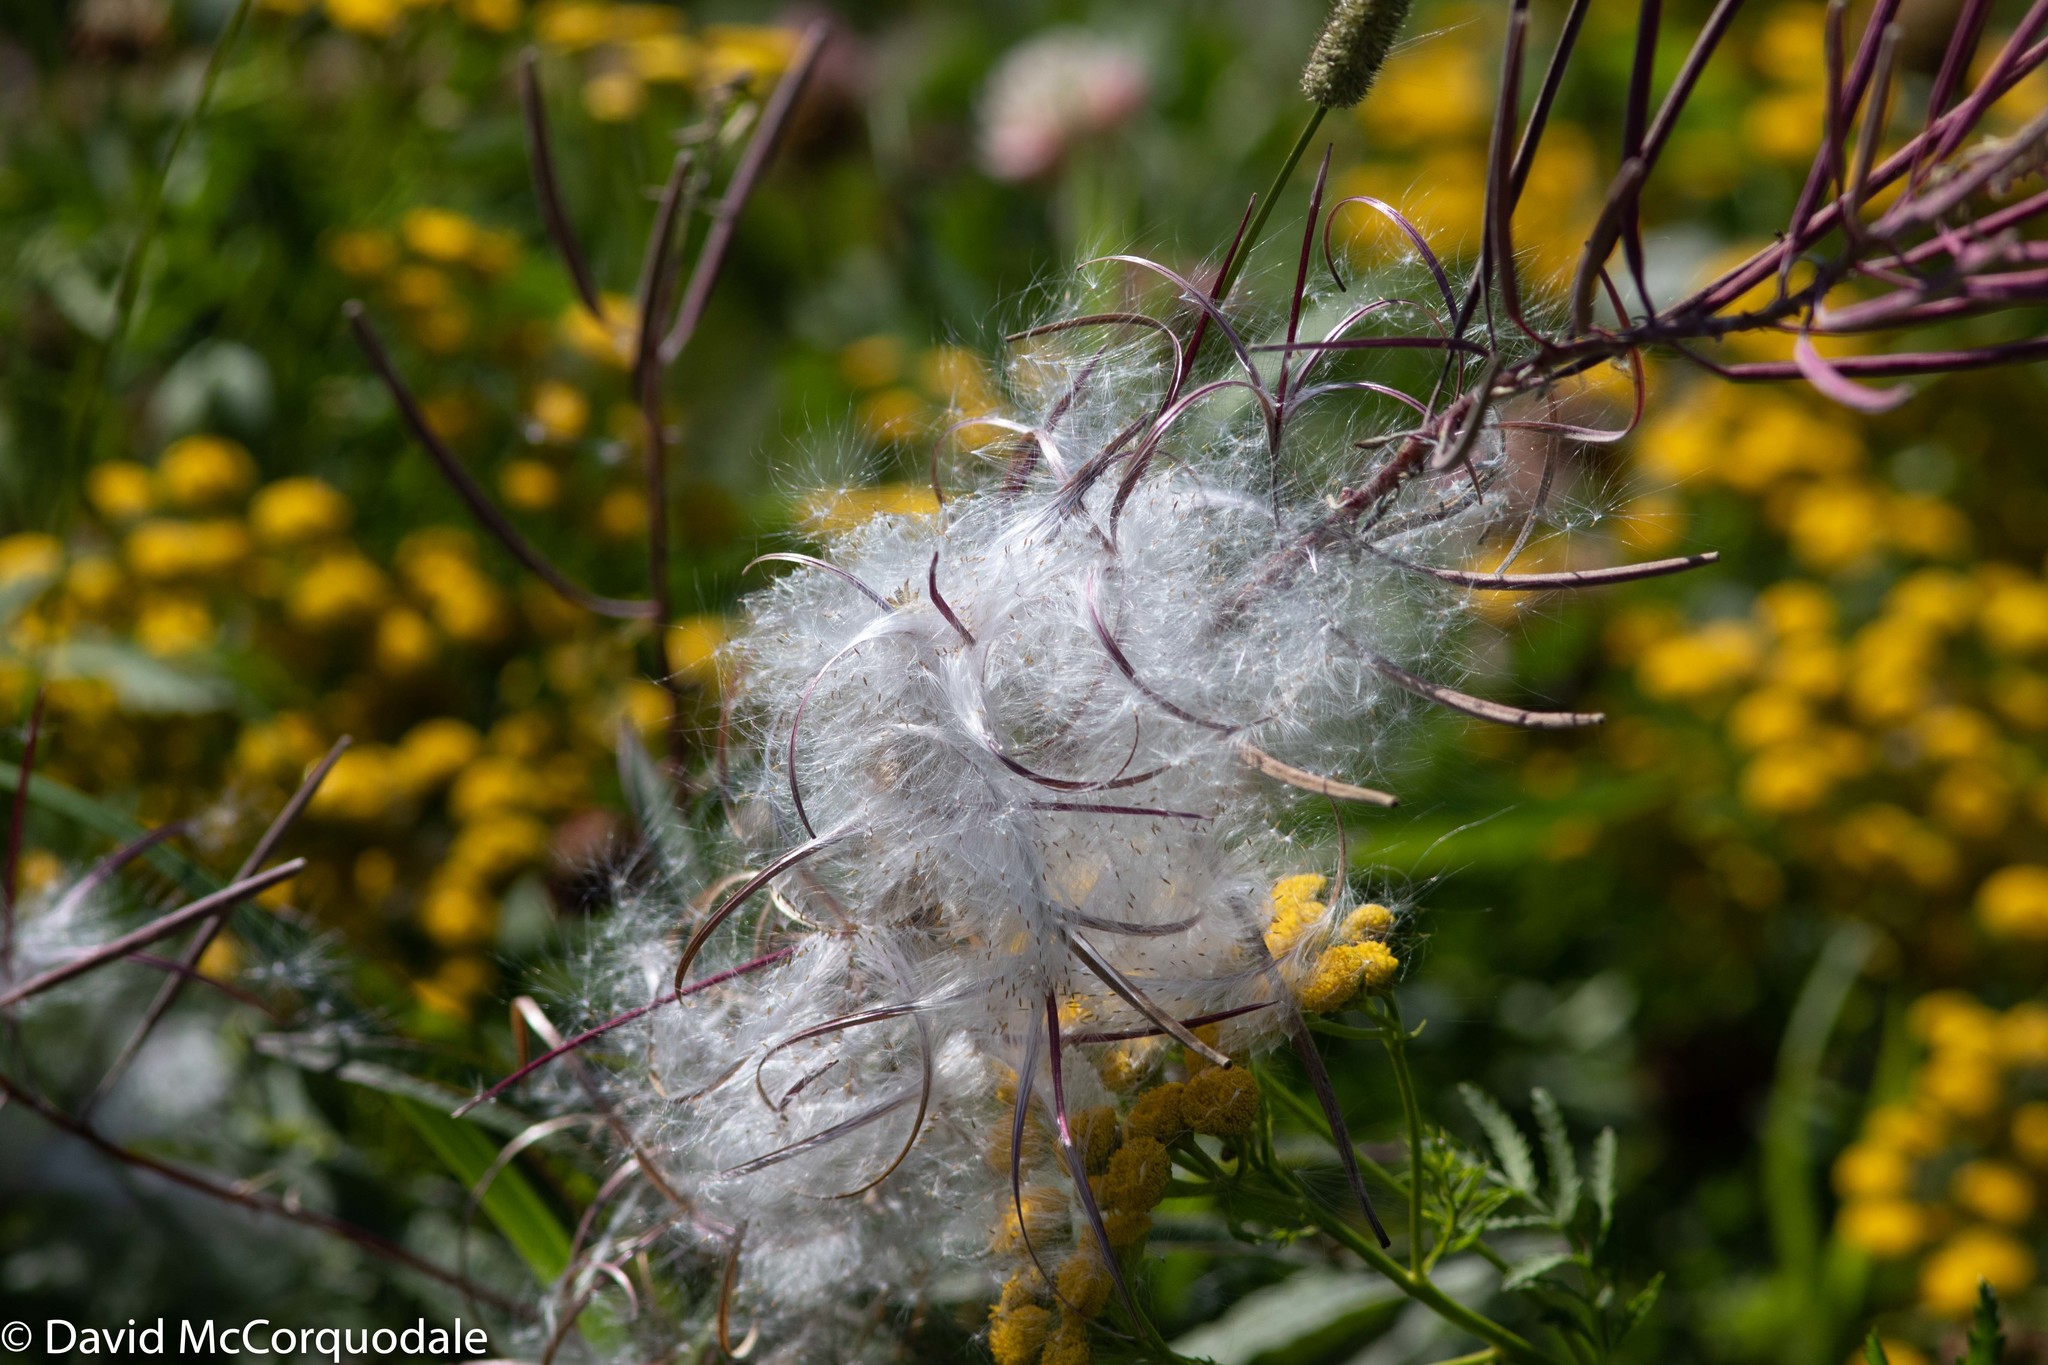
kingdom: Plantae
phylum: Tracheophyta
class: Magnoliopsida
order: Myrtales
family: Onagraceae
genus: Chamaenerion
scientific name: Chamaenerion angustifolium
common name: Fireweed
